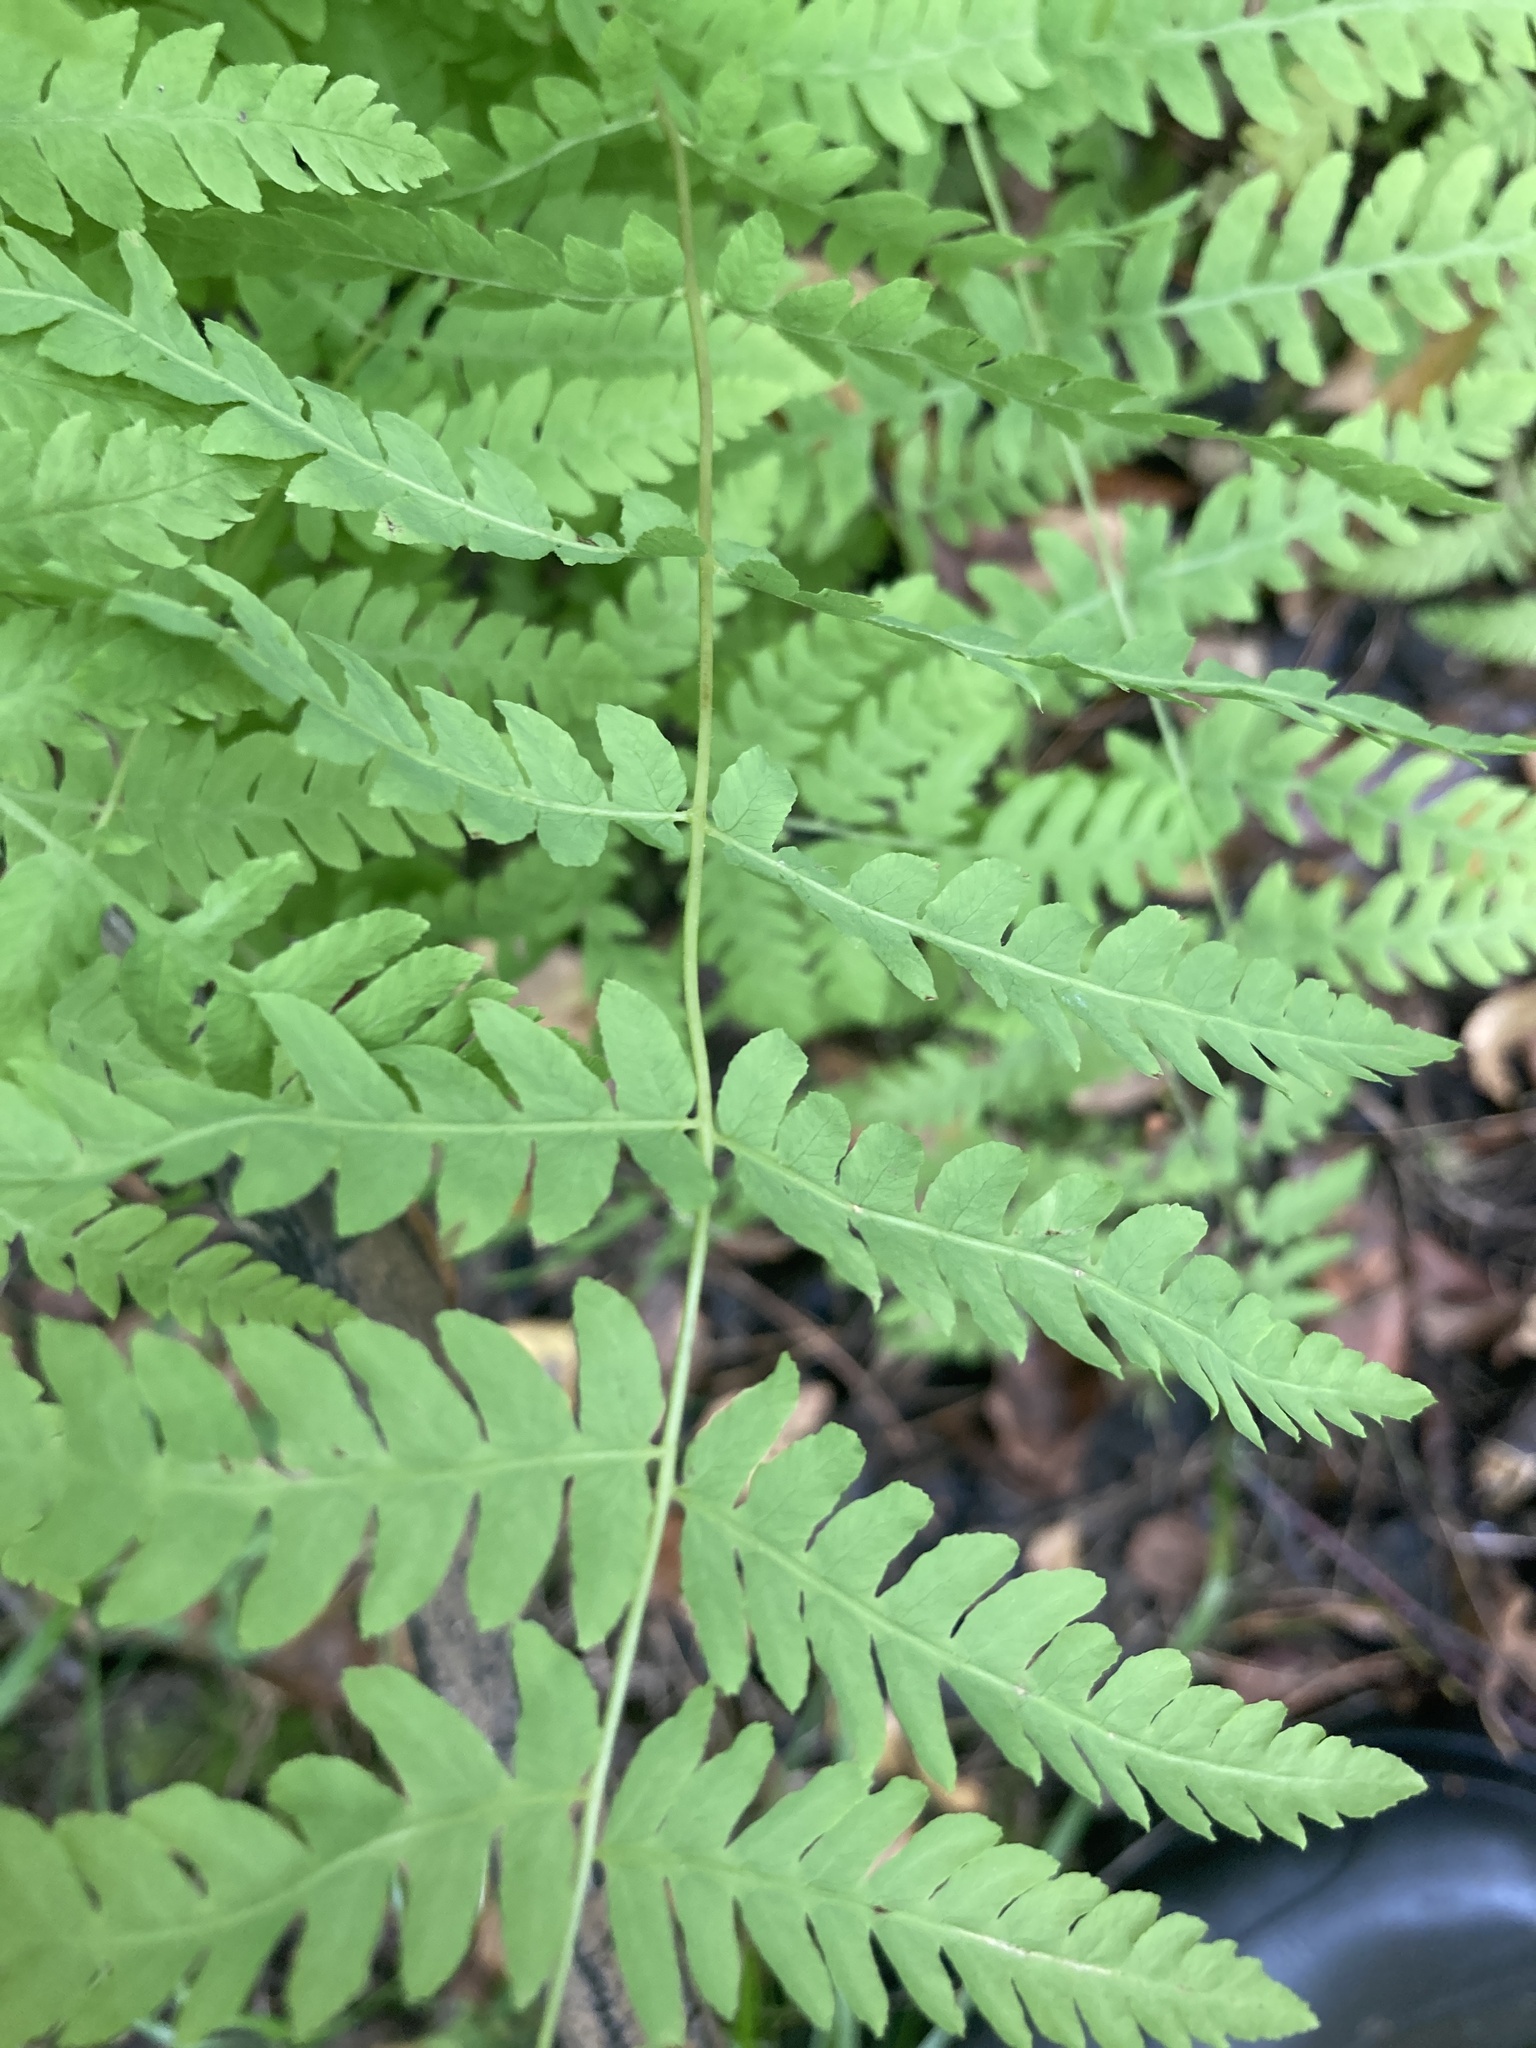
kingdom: Plantae
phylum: Tracheophyta
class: Polypodiopsida
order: Polypodiales
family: Thelypteridaceae
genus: Thelypteris
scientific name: Thelypteris palustris
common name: Marsh fern
